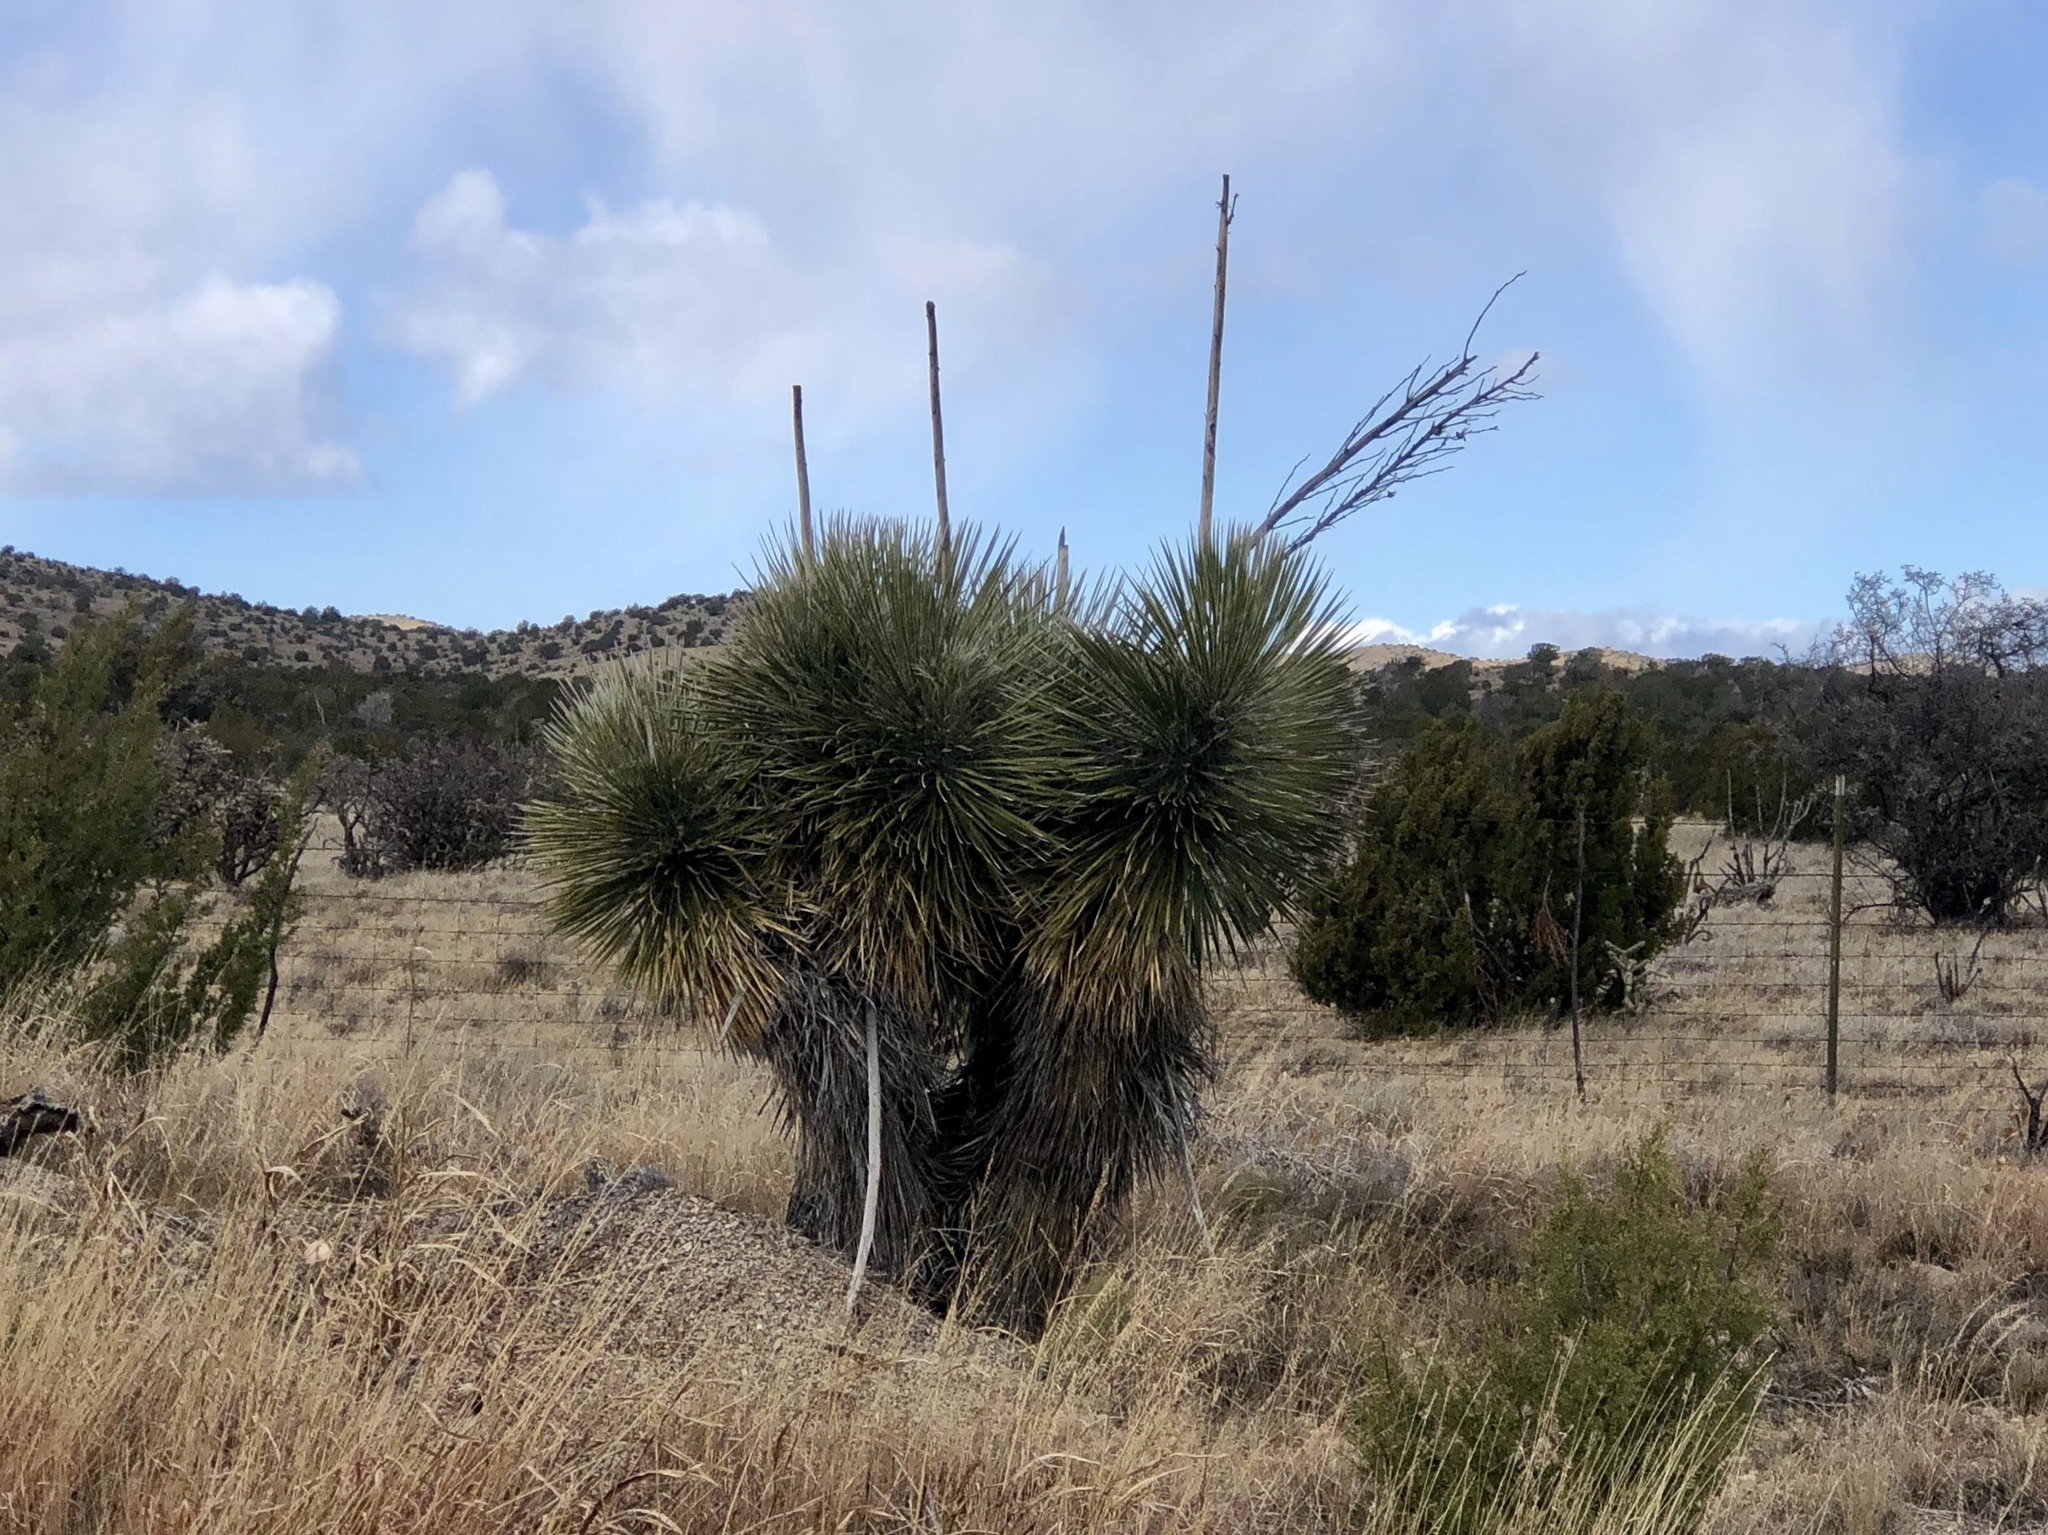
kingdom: Plantae
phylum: Tracheophyta
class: Liliopsida
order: Asparagales
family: Asparagaceae
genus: Yucca
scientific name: Yucca elata
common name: Palmella
